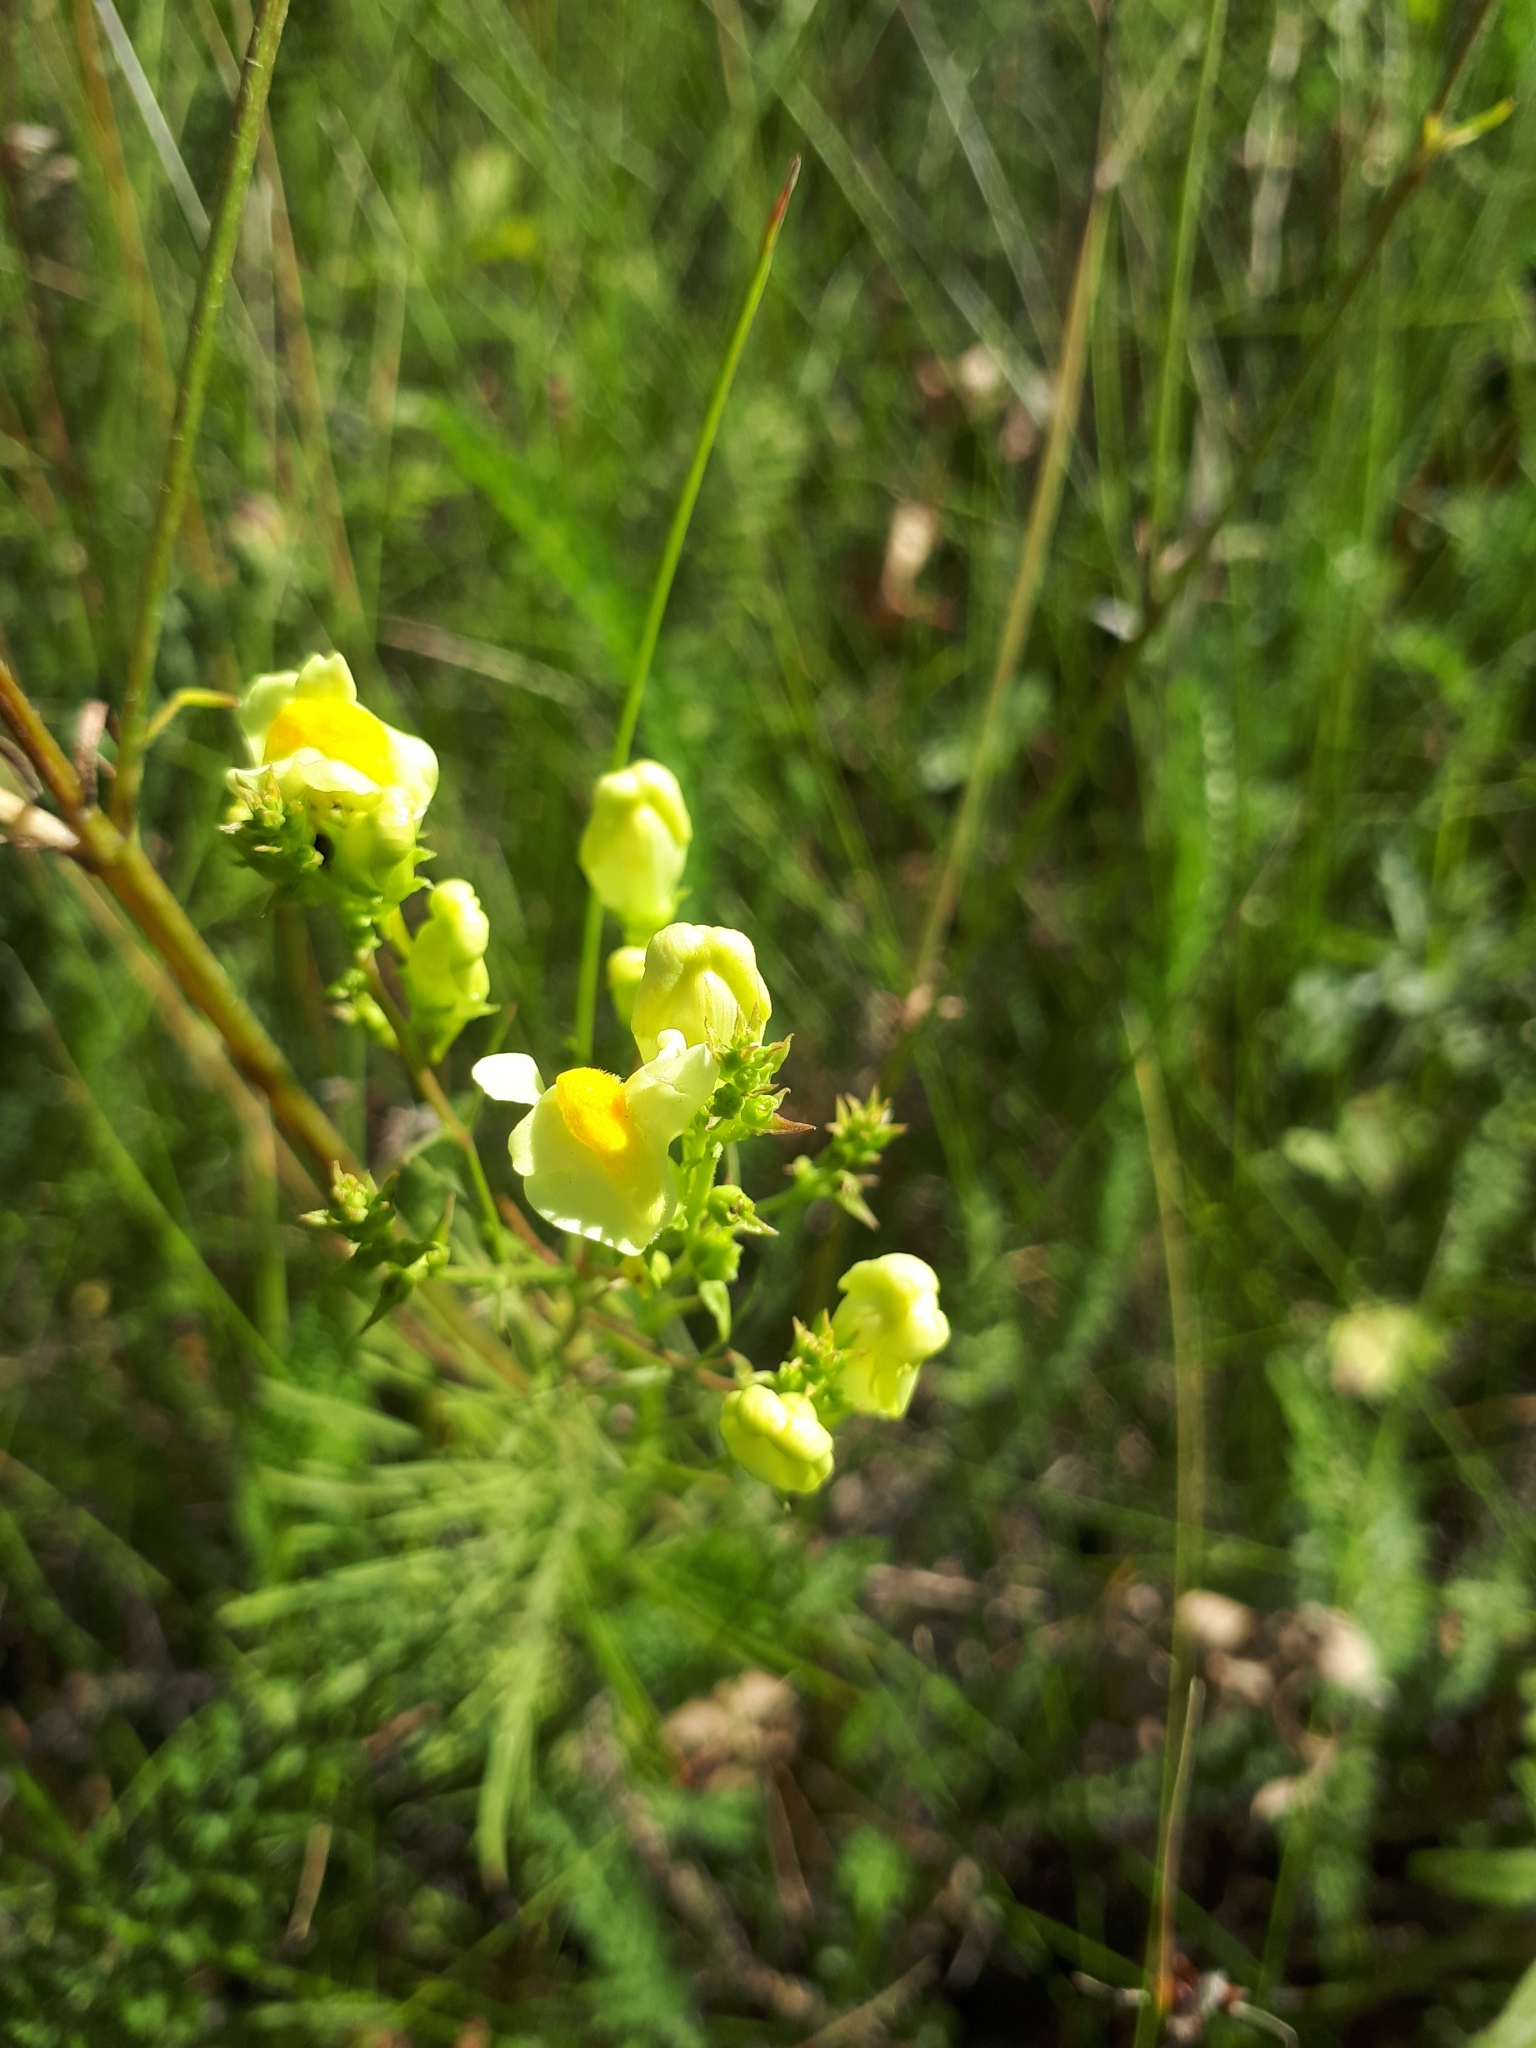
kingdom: Plantae
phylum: Tracheophyta
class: Magnoliopsida
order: Lamiales
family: Plantaginaceae
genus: Linaria
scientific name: Linaria vulgaris
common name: Butter and eggs
